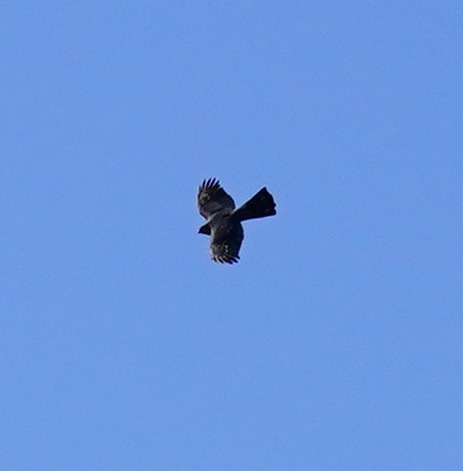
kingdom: Animalia
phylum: Chordata
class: Aves
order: Accipitriformes
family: Accipitridae
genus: Accipiter
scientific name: Accipiter striatus
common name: Sharp-shinned hawk
